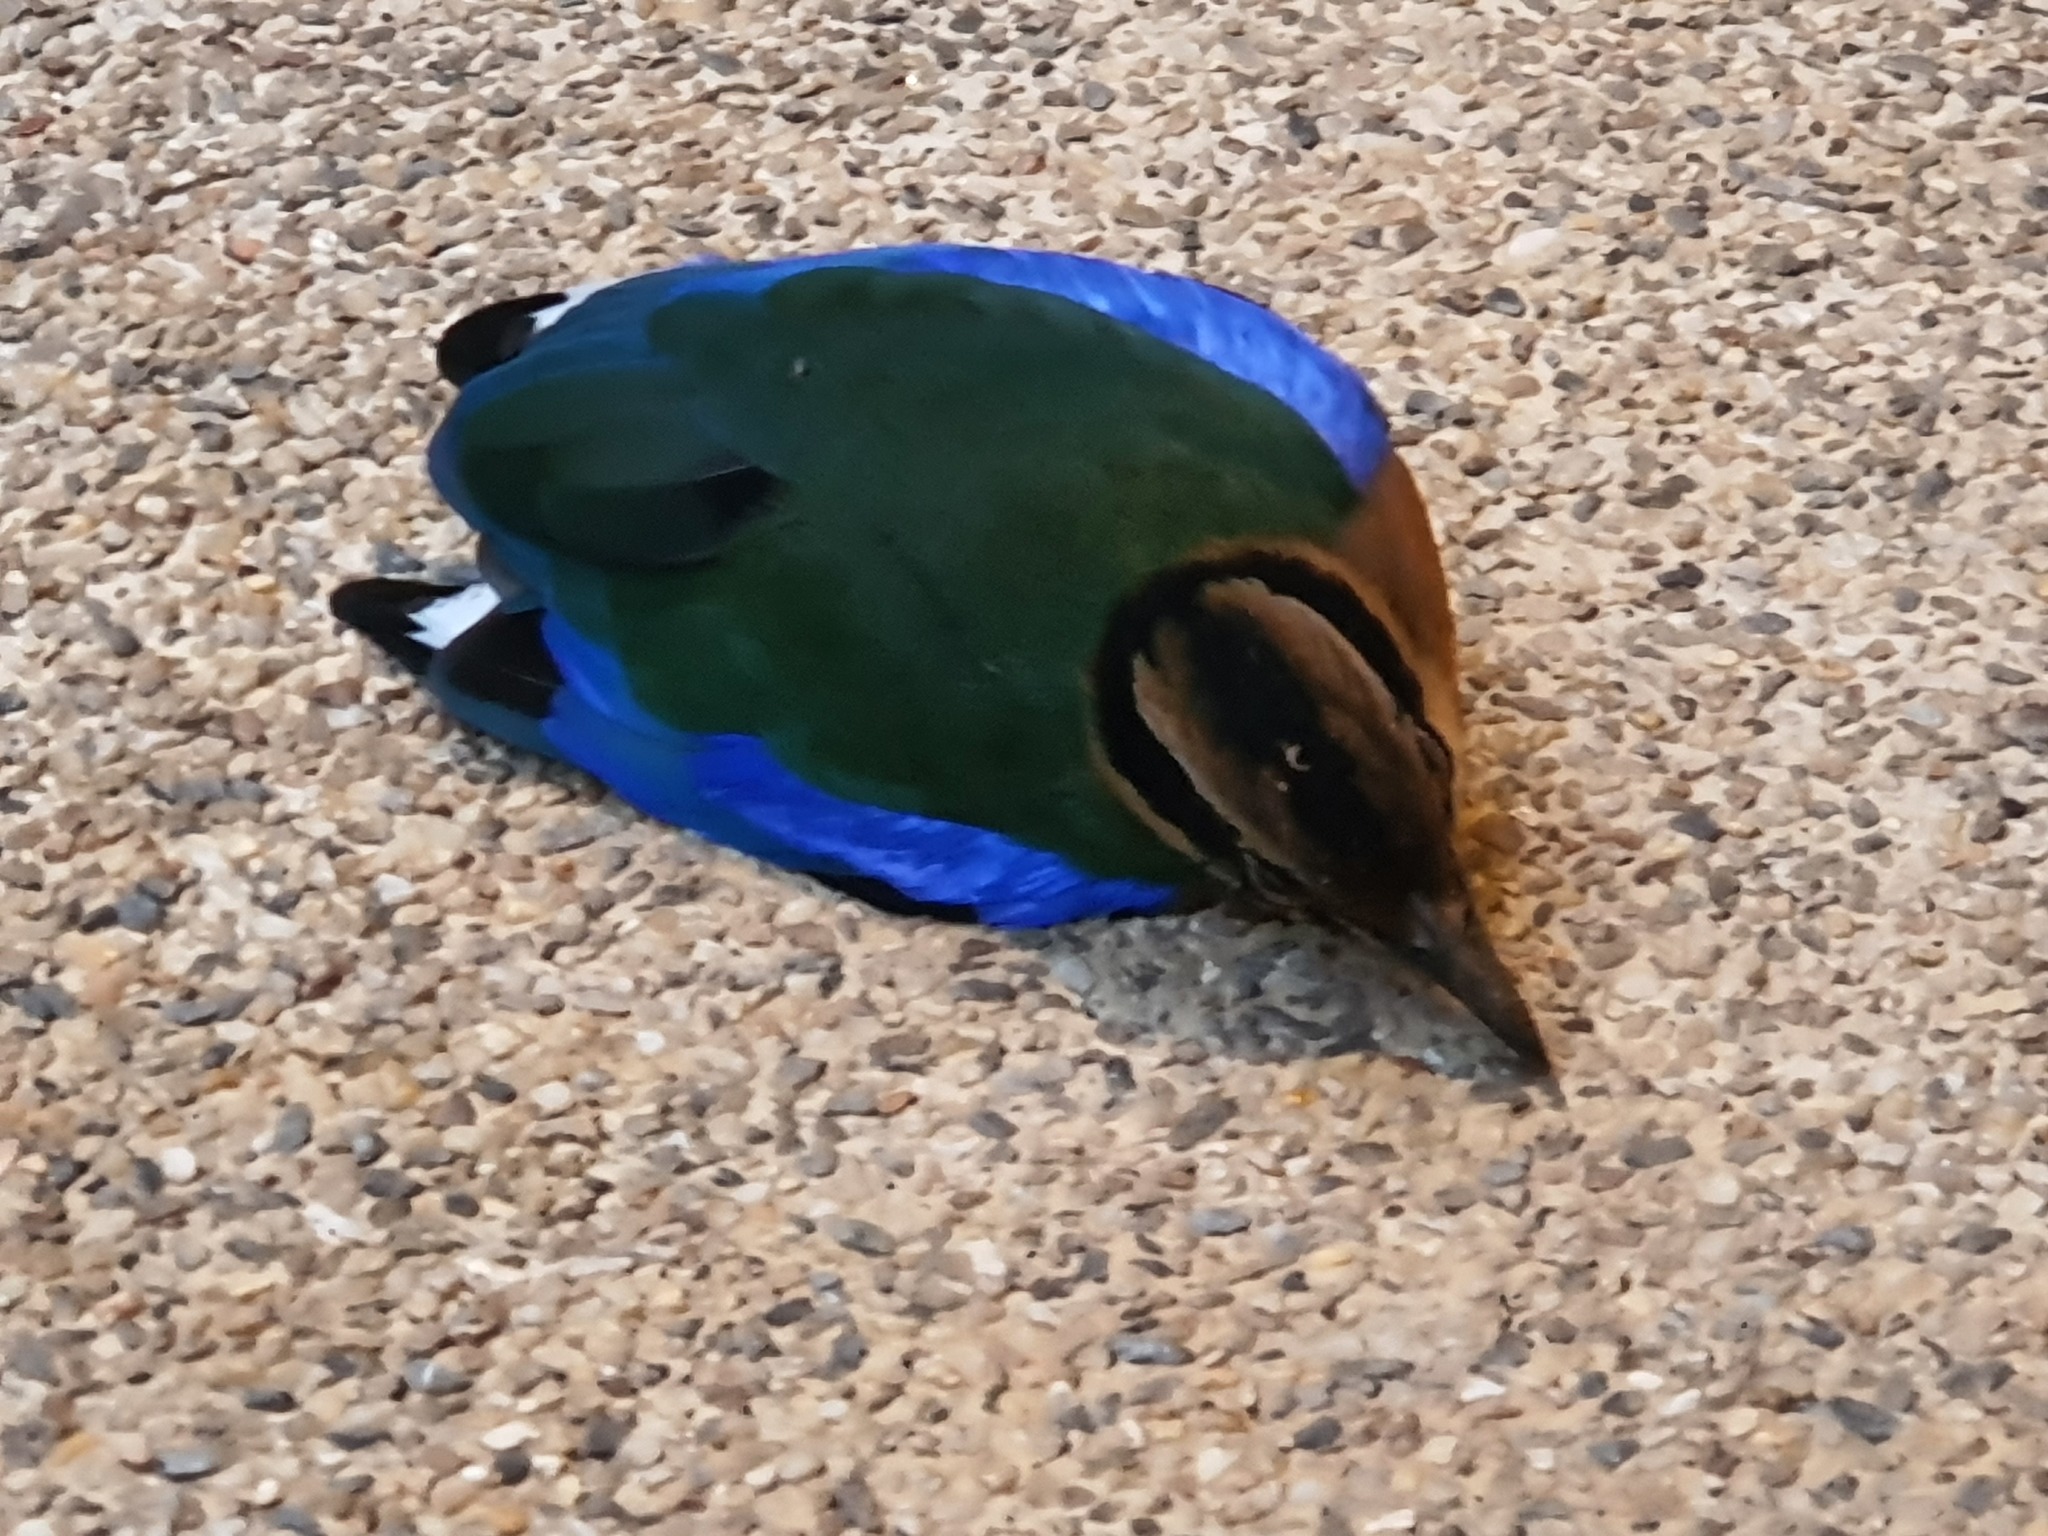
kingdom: Animalia
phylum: Chordata
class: Aves
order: Passeriformes
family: Pittidae
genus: Pitta
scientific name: Pitta moluccensis
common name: Blue-winged pitta
